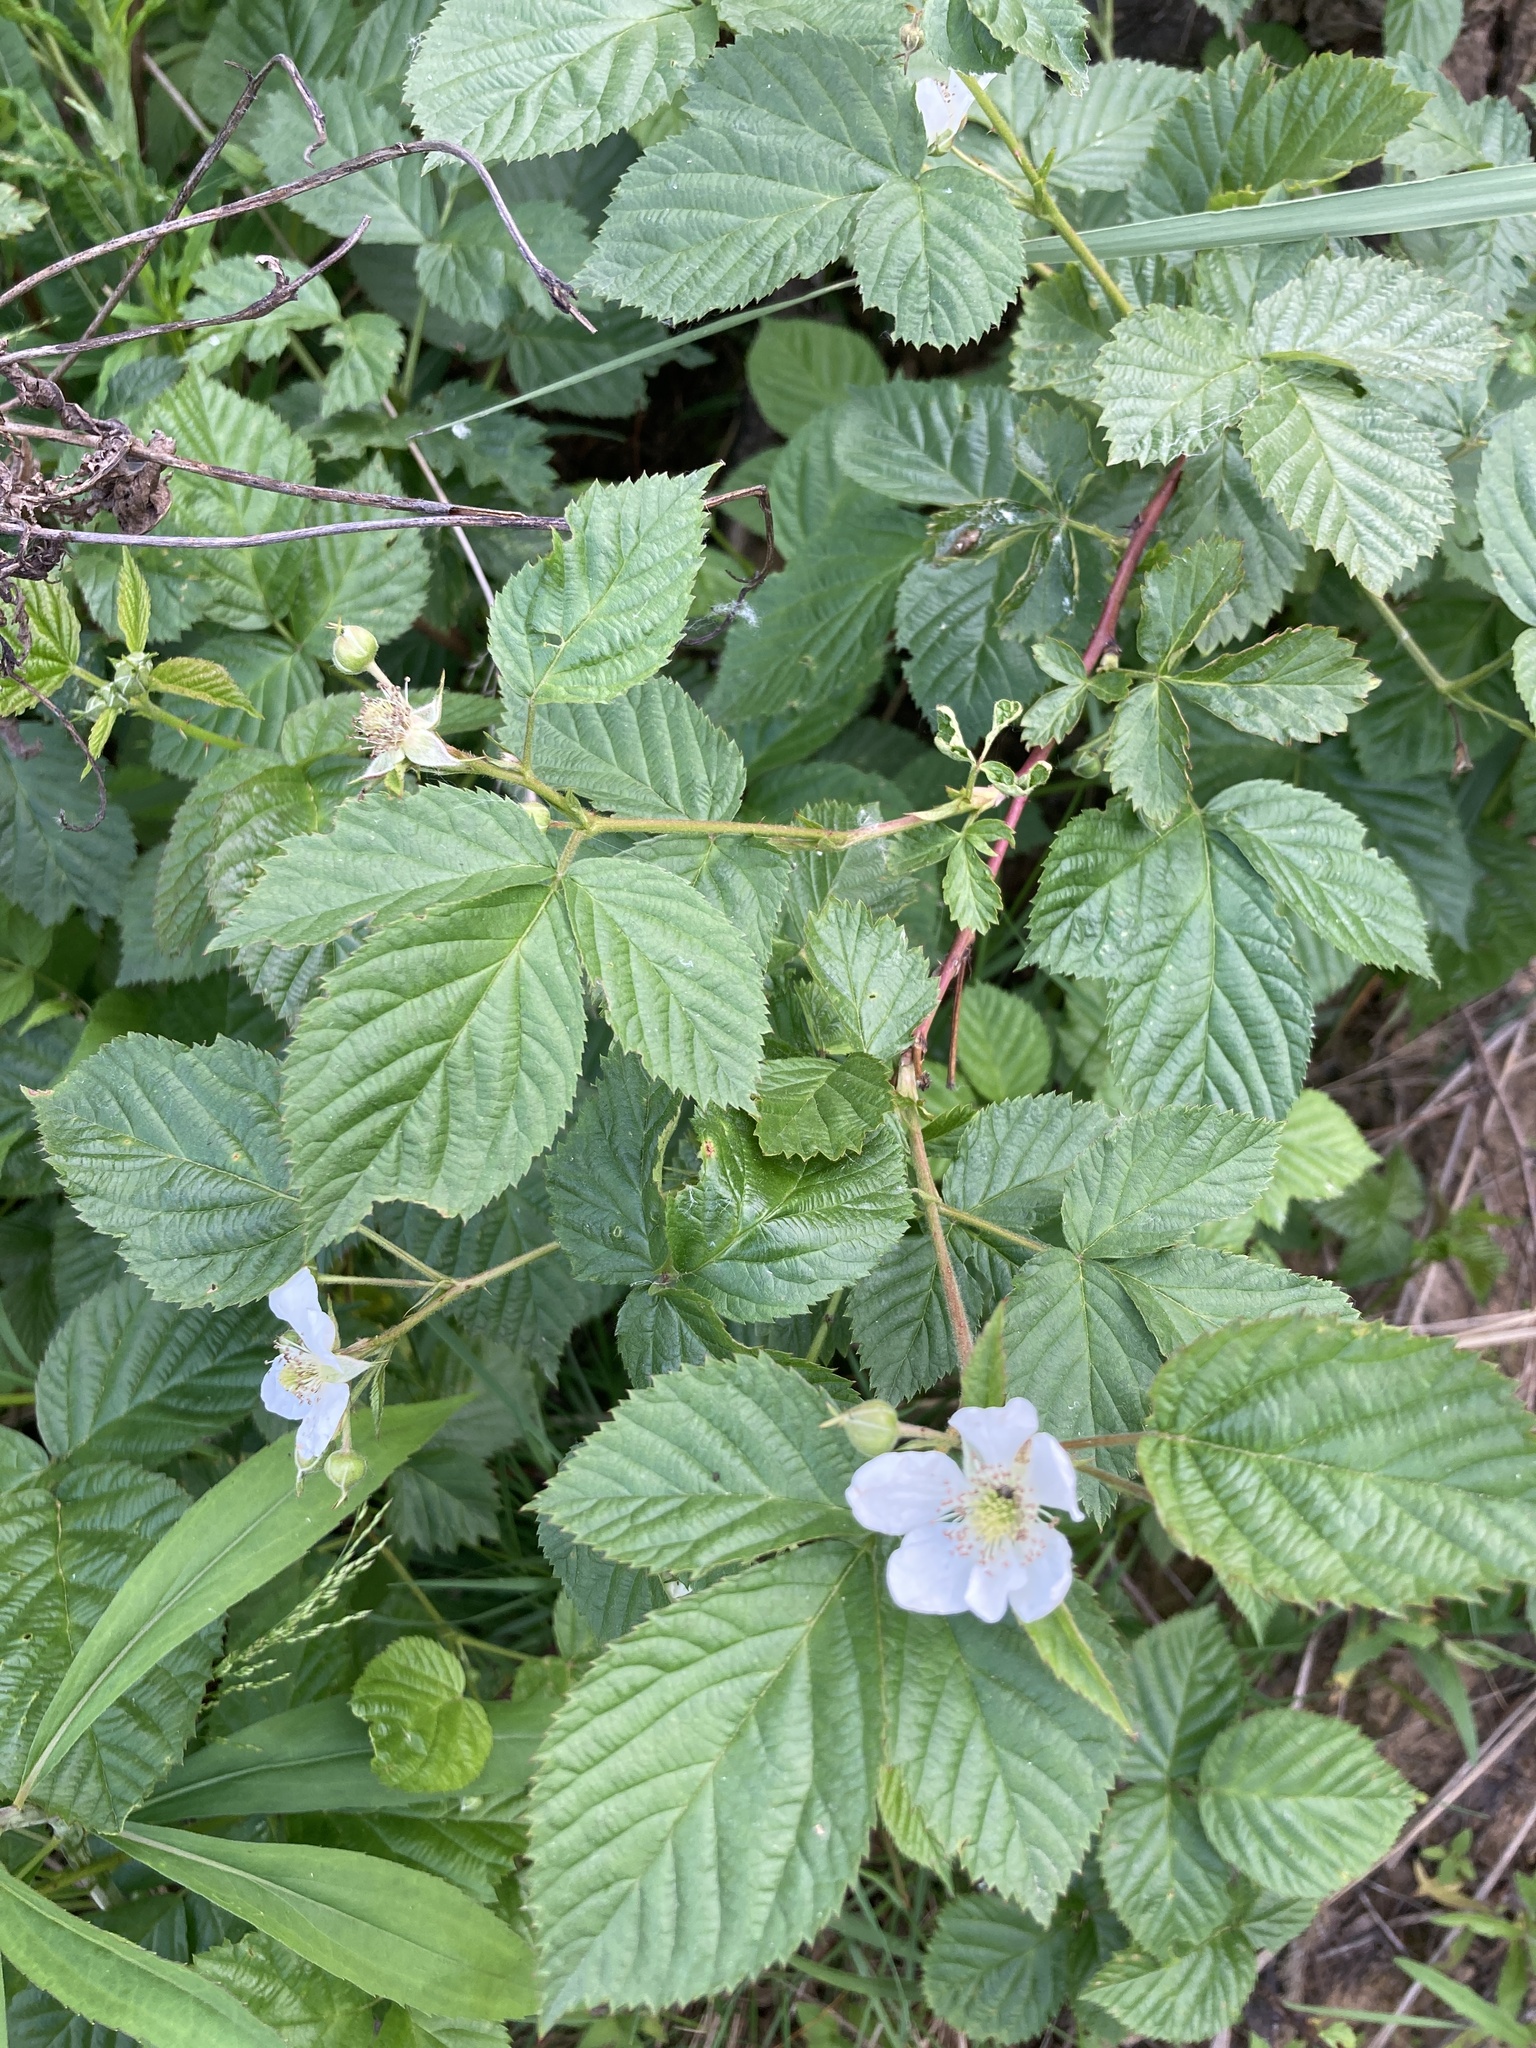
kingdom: Plantae
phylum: Tracheophyta
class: Magnoliopsida
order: Rosales
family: Rosaceae
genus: Rubus
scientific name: Rubus polonicus
